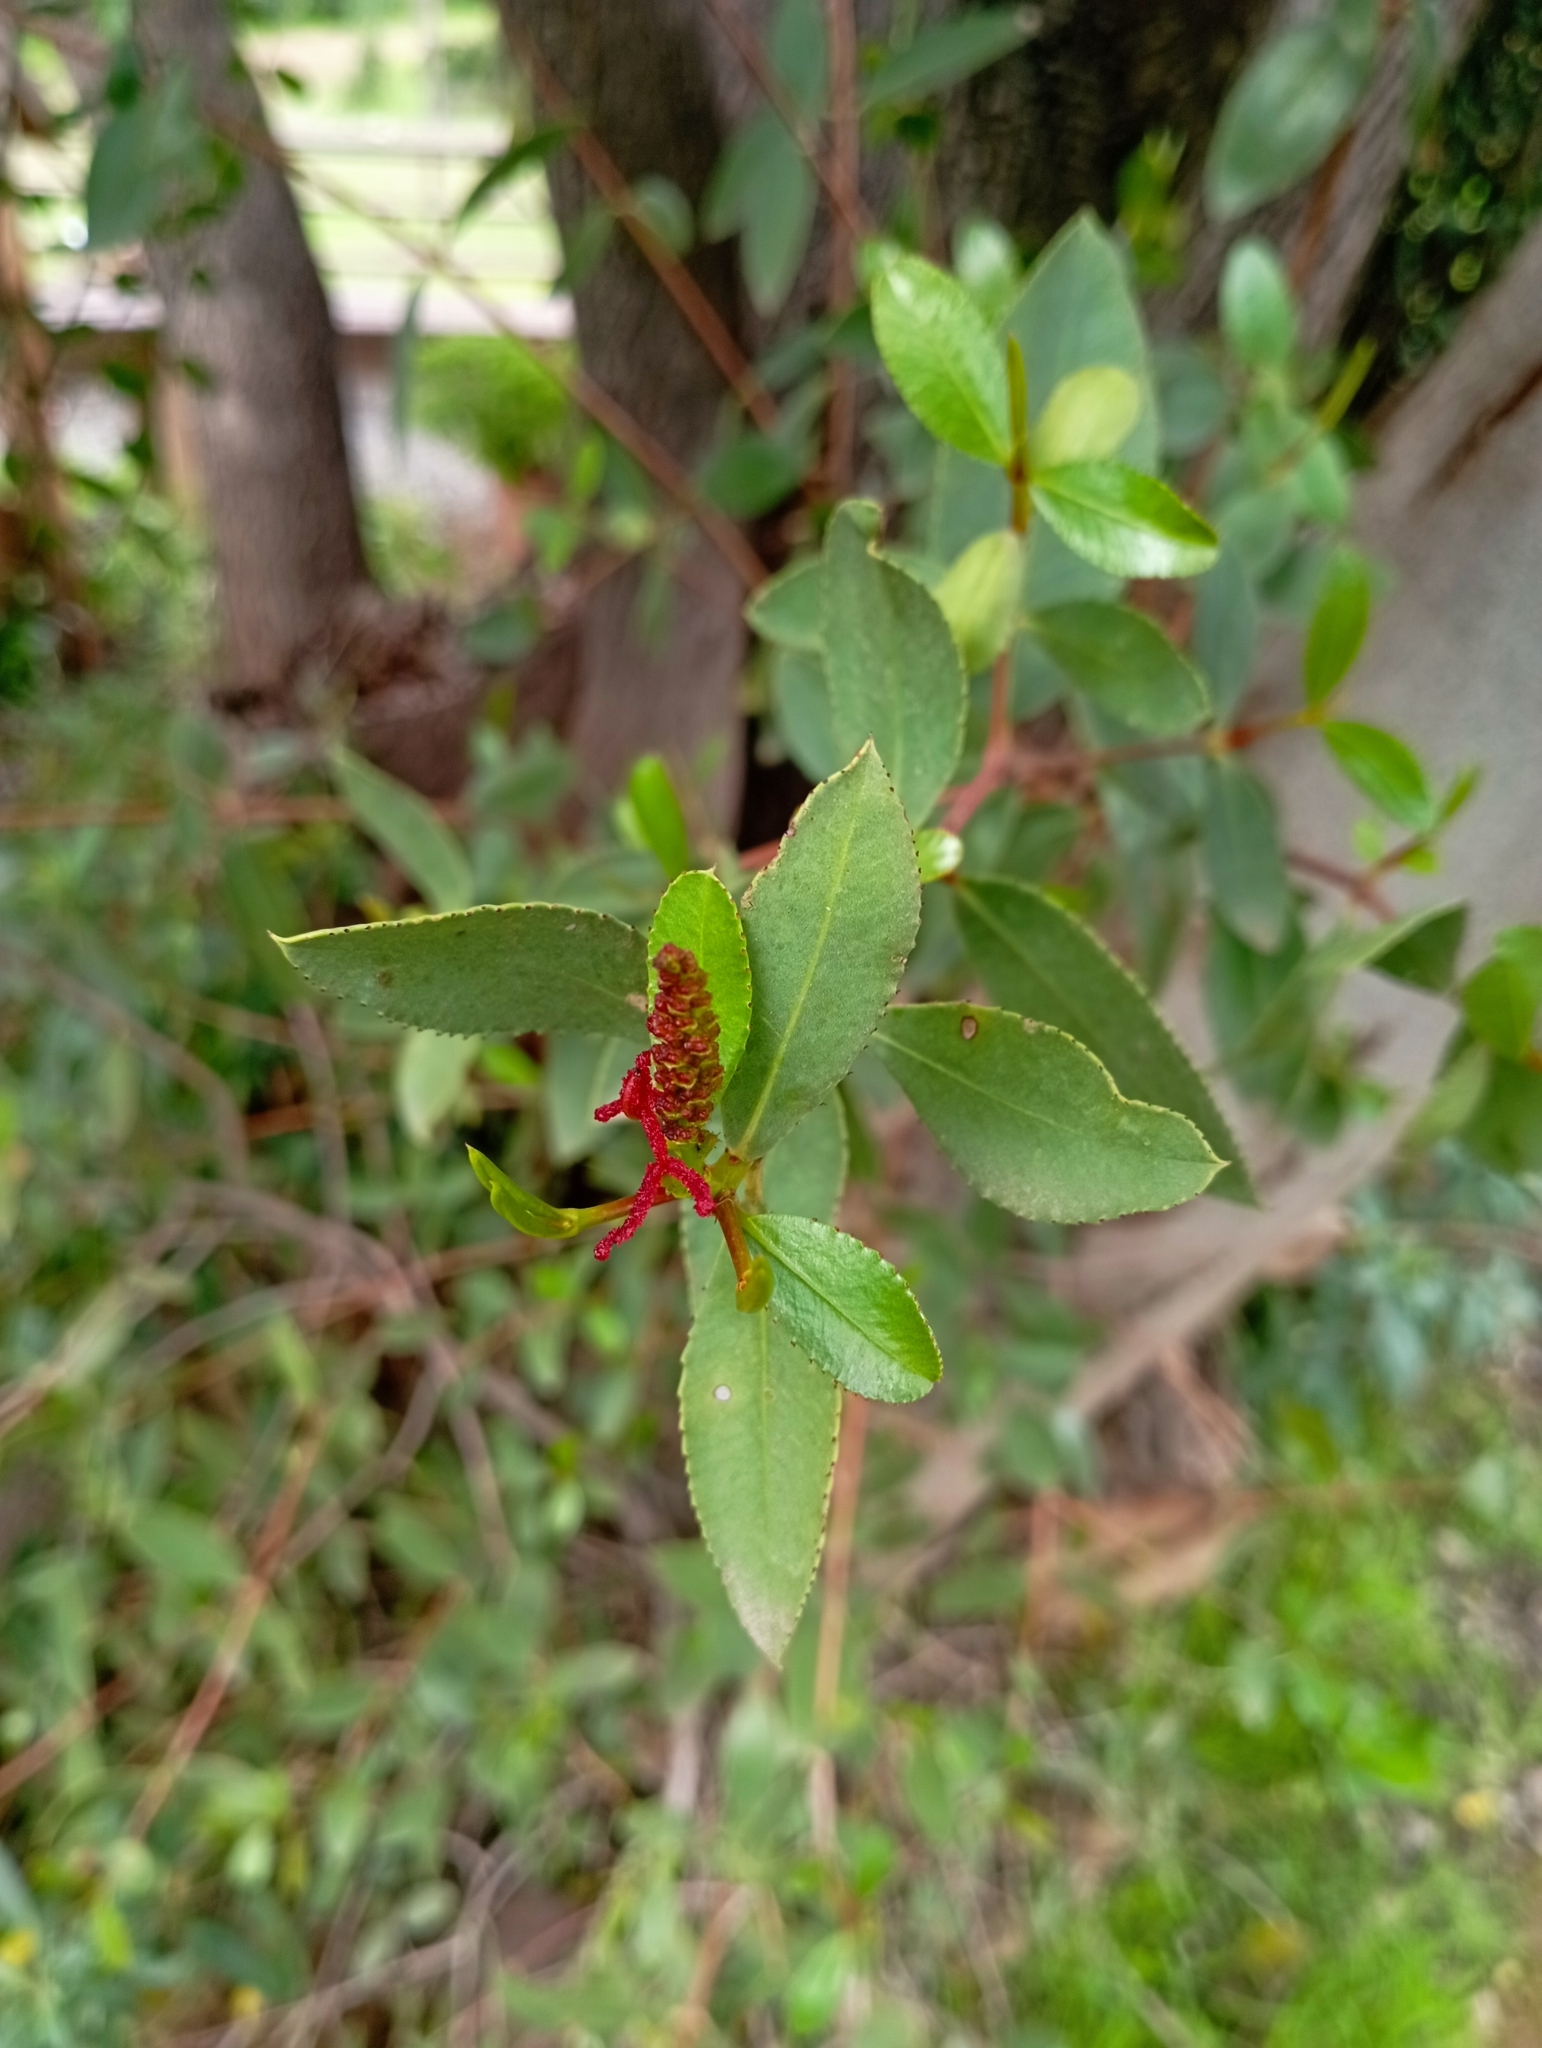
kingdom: Plantae
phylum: Tracheophyta
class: Magnoliopsida
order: Malpighiales
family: Euphorbiaceae
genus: Colliguaja
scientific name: Colliguaja odorifera
